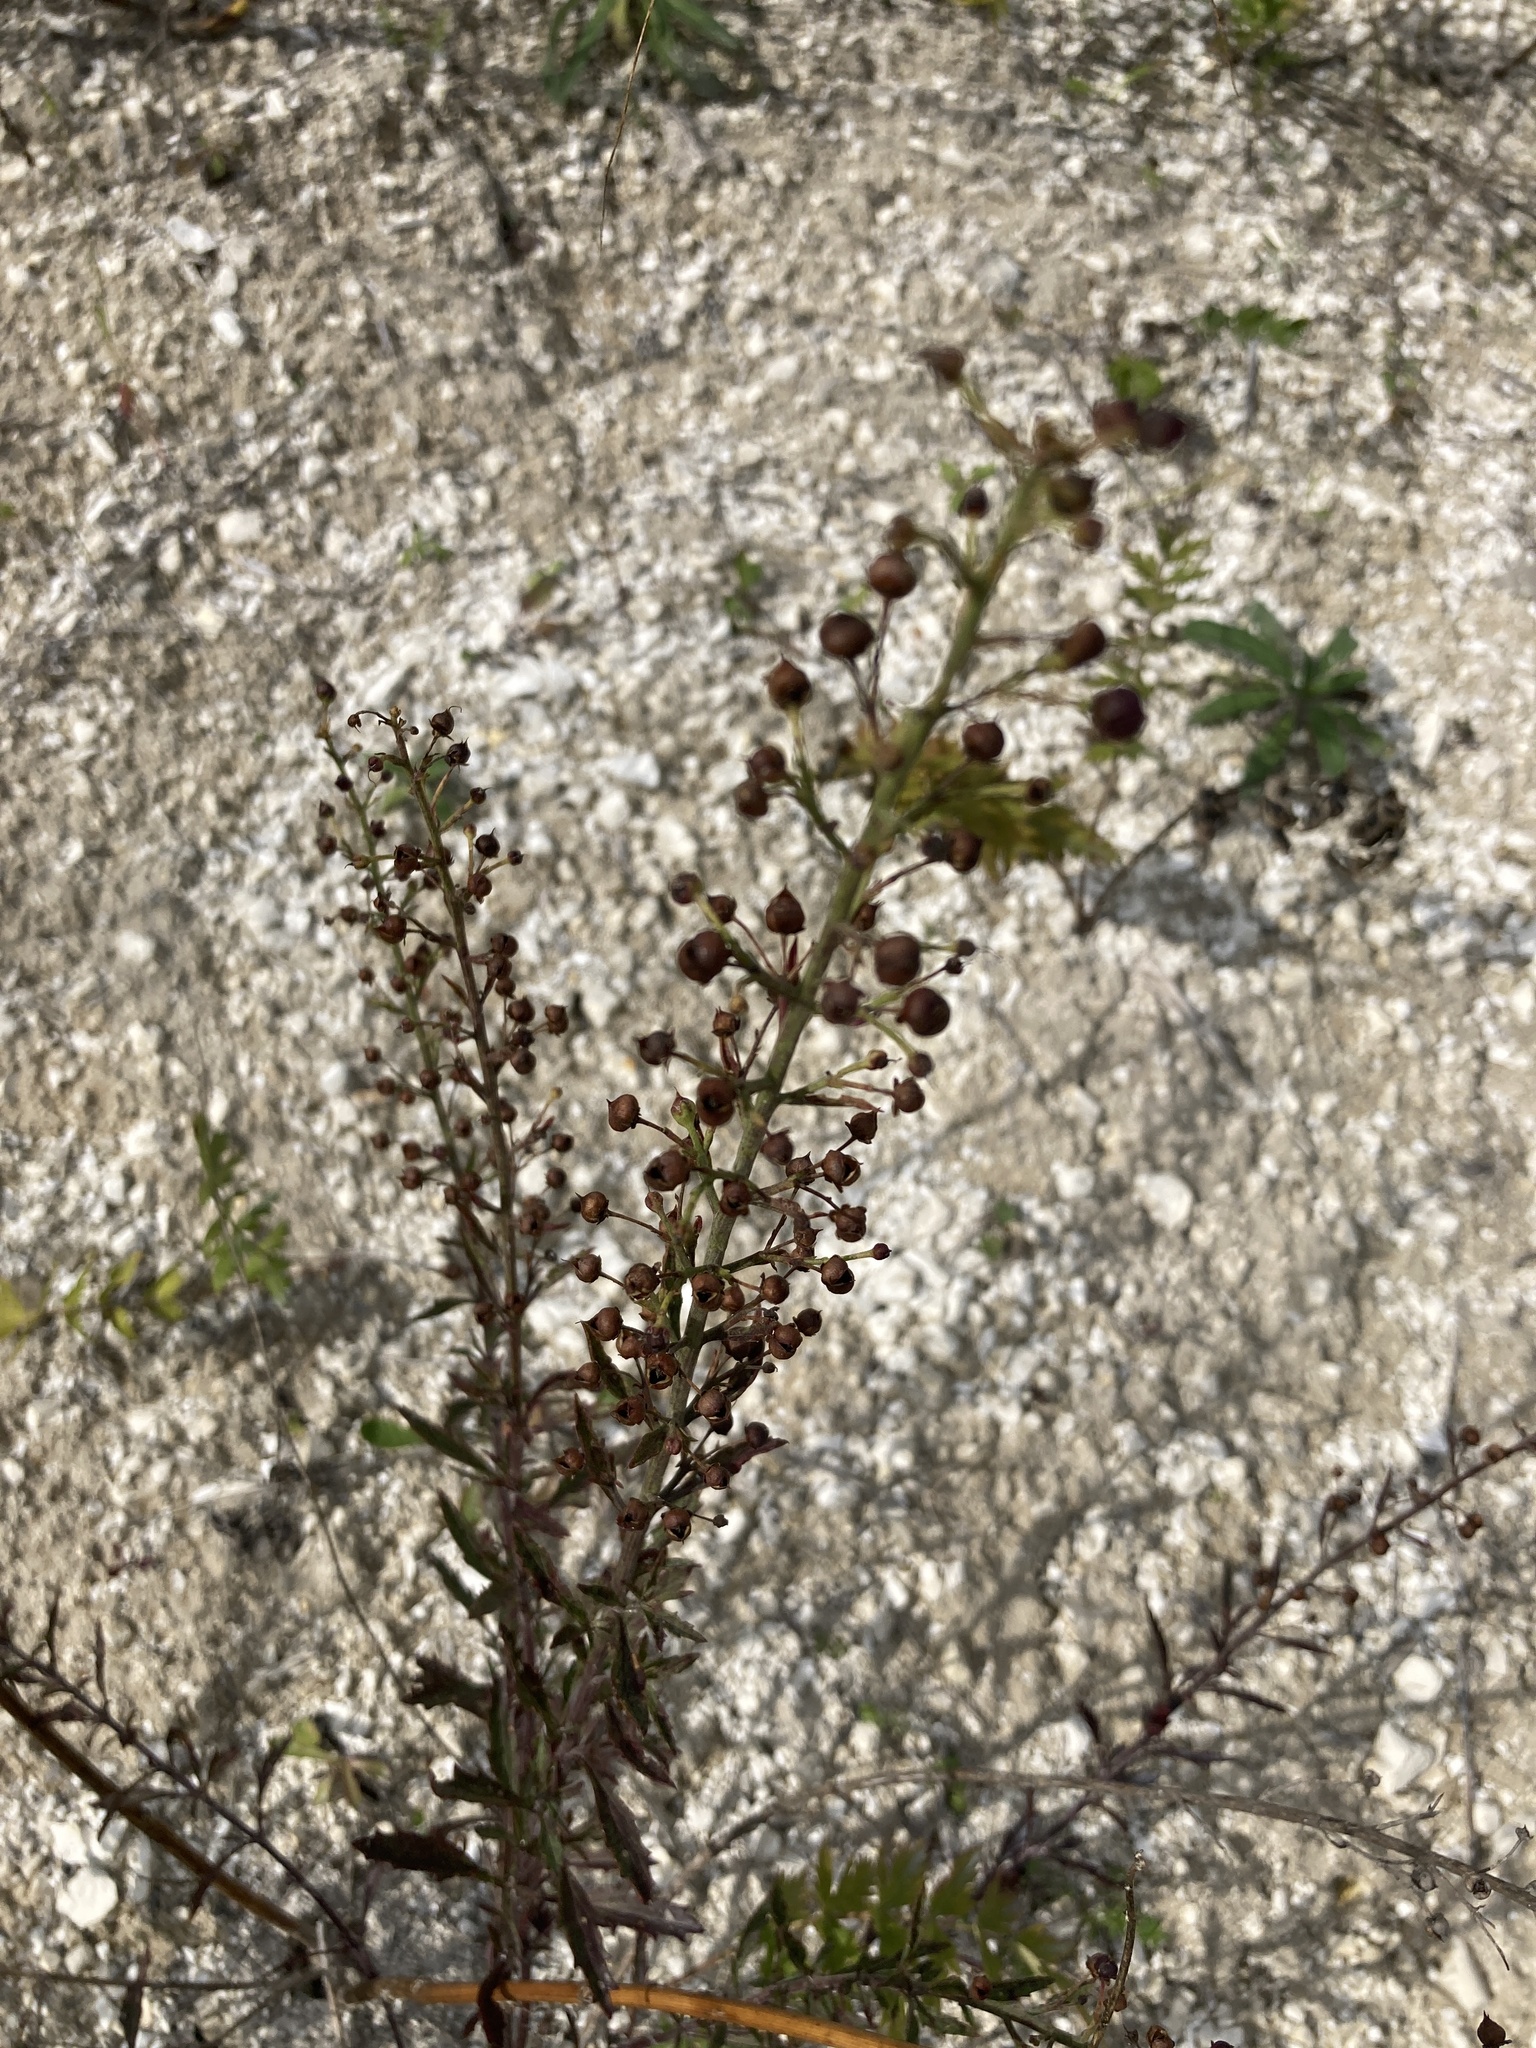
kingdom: Plantae
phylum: Tracheophyta
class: Magnoliopsida
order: Lamiales
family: Scrophulariaceae
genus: Scrophularia
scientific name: Scrophularia cretacea
